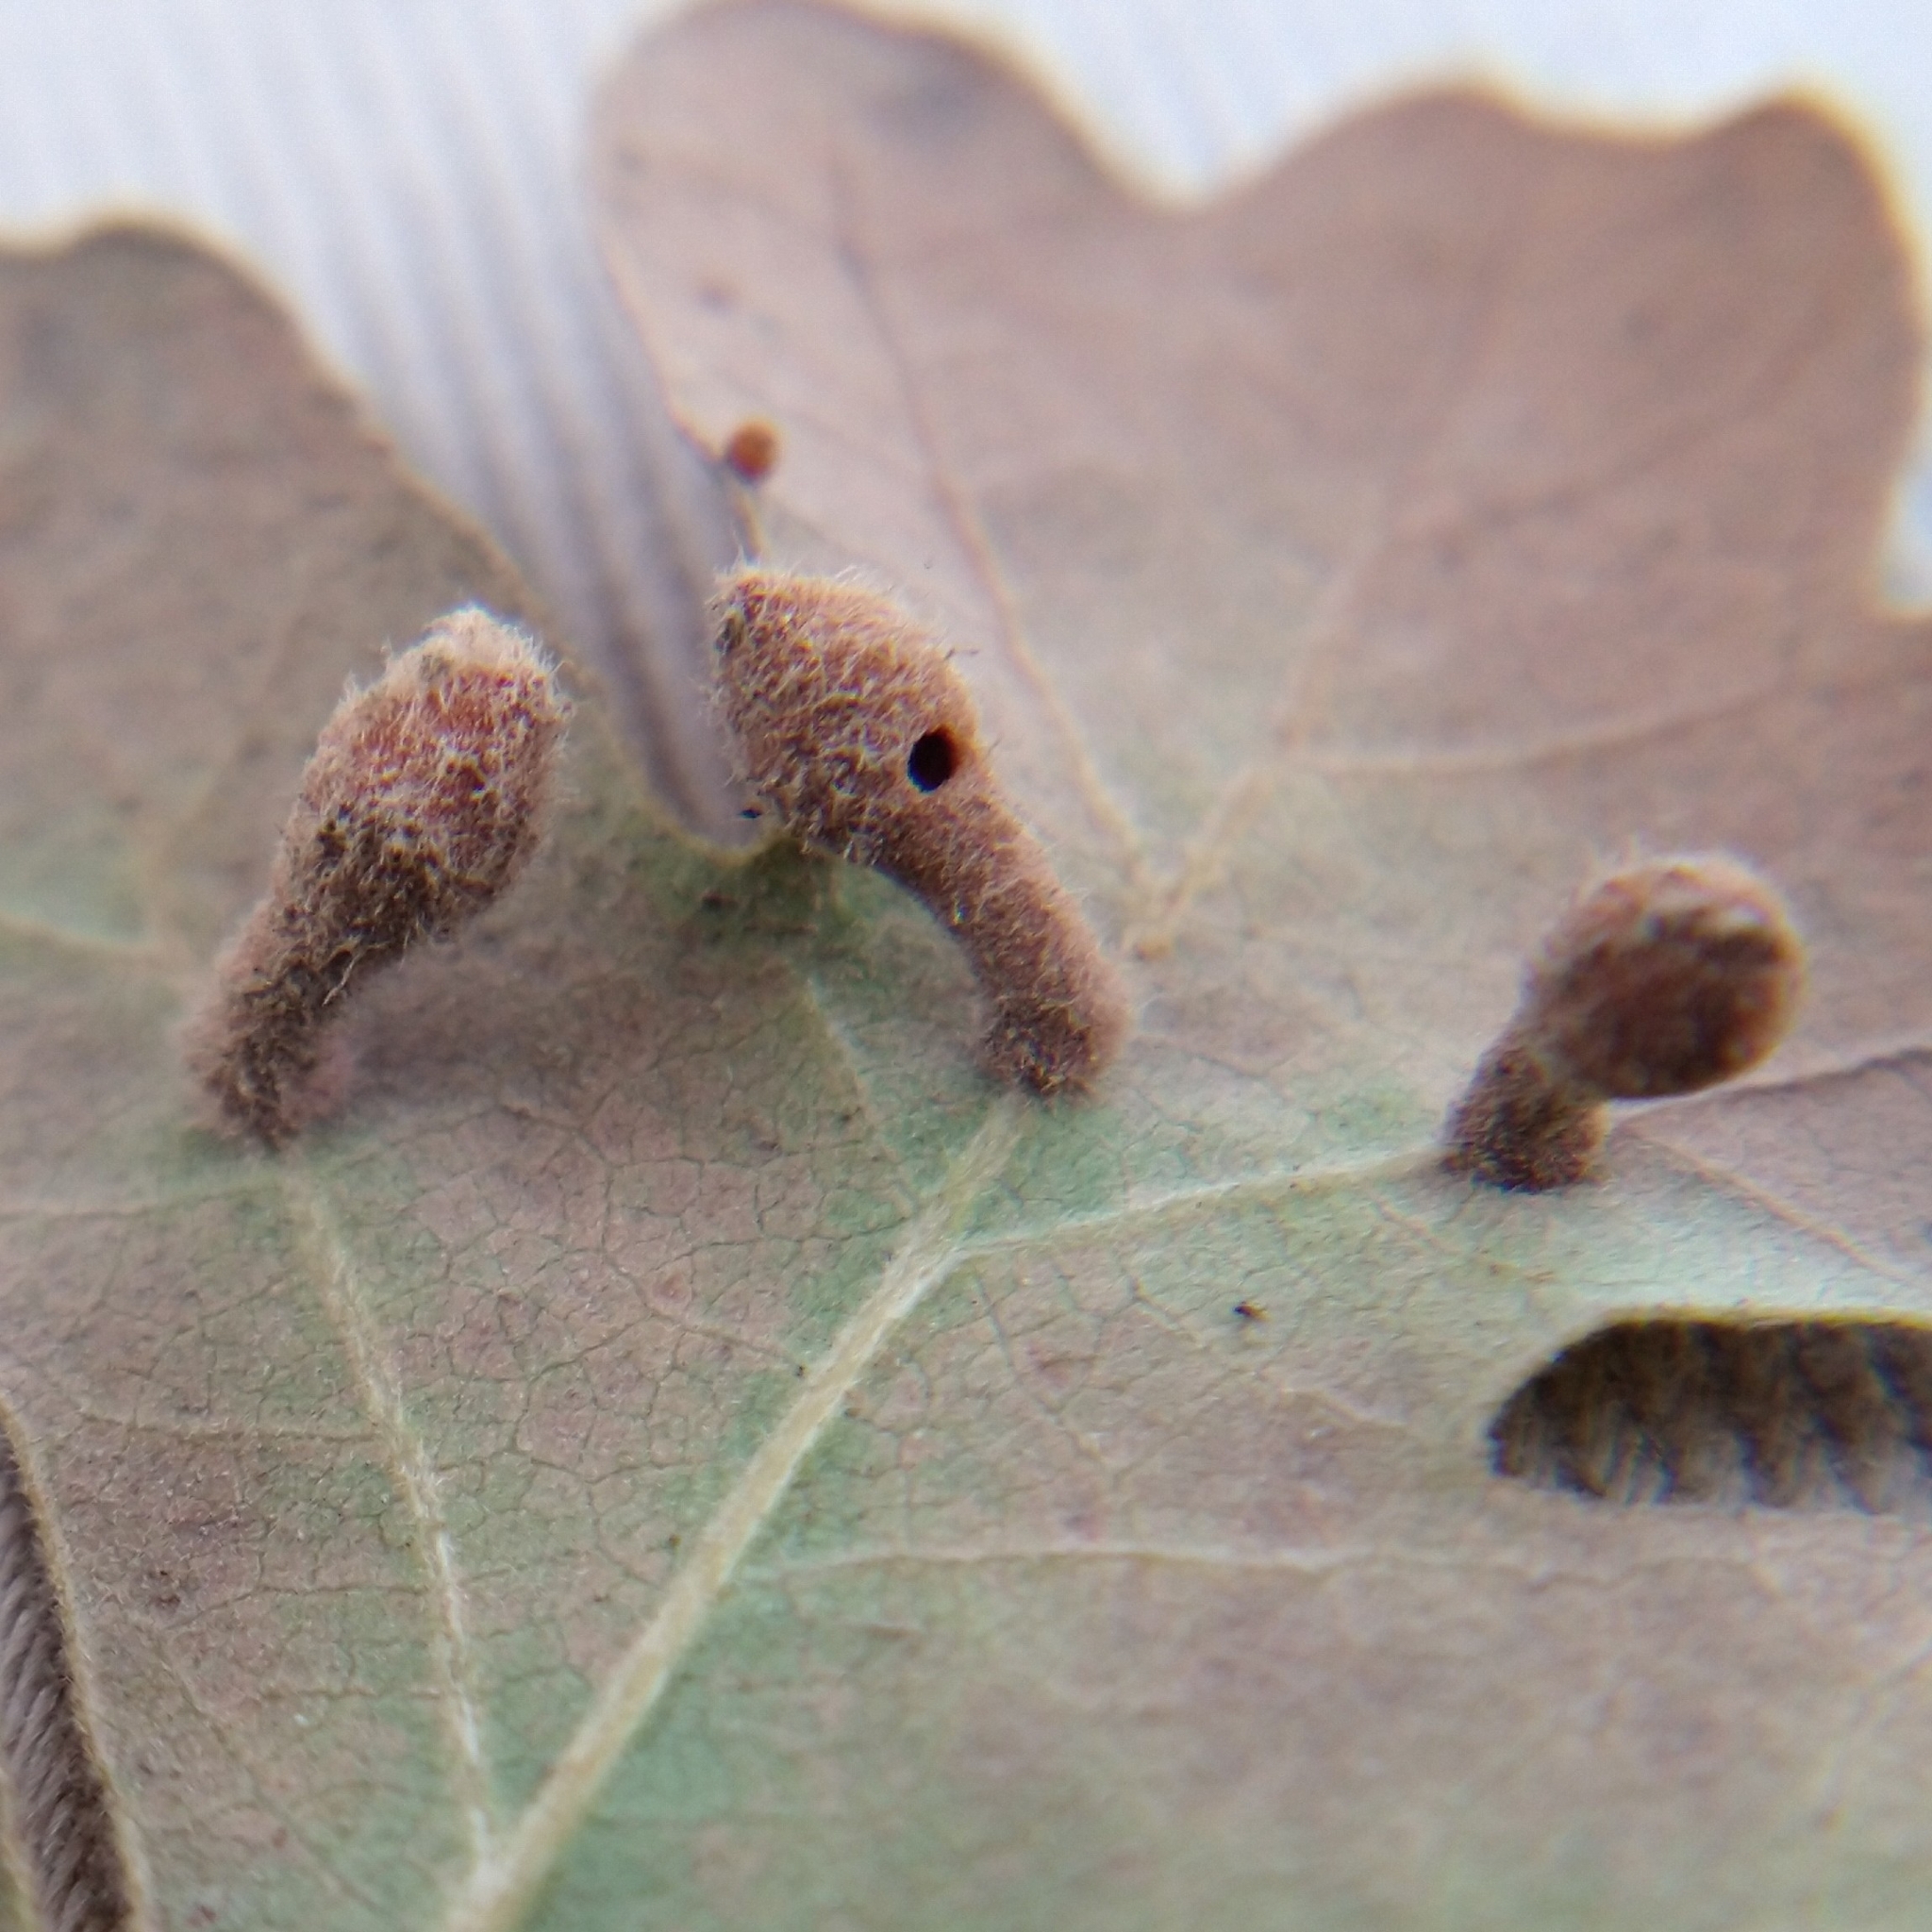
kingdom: Animalia
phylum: Arthropoda
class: Insecta
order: Hymenoptera
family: Cynipidae
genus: Atrusca
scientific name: Atrusca
